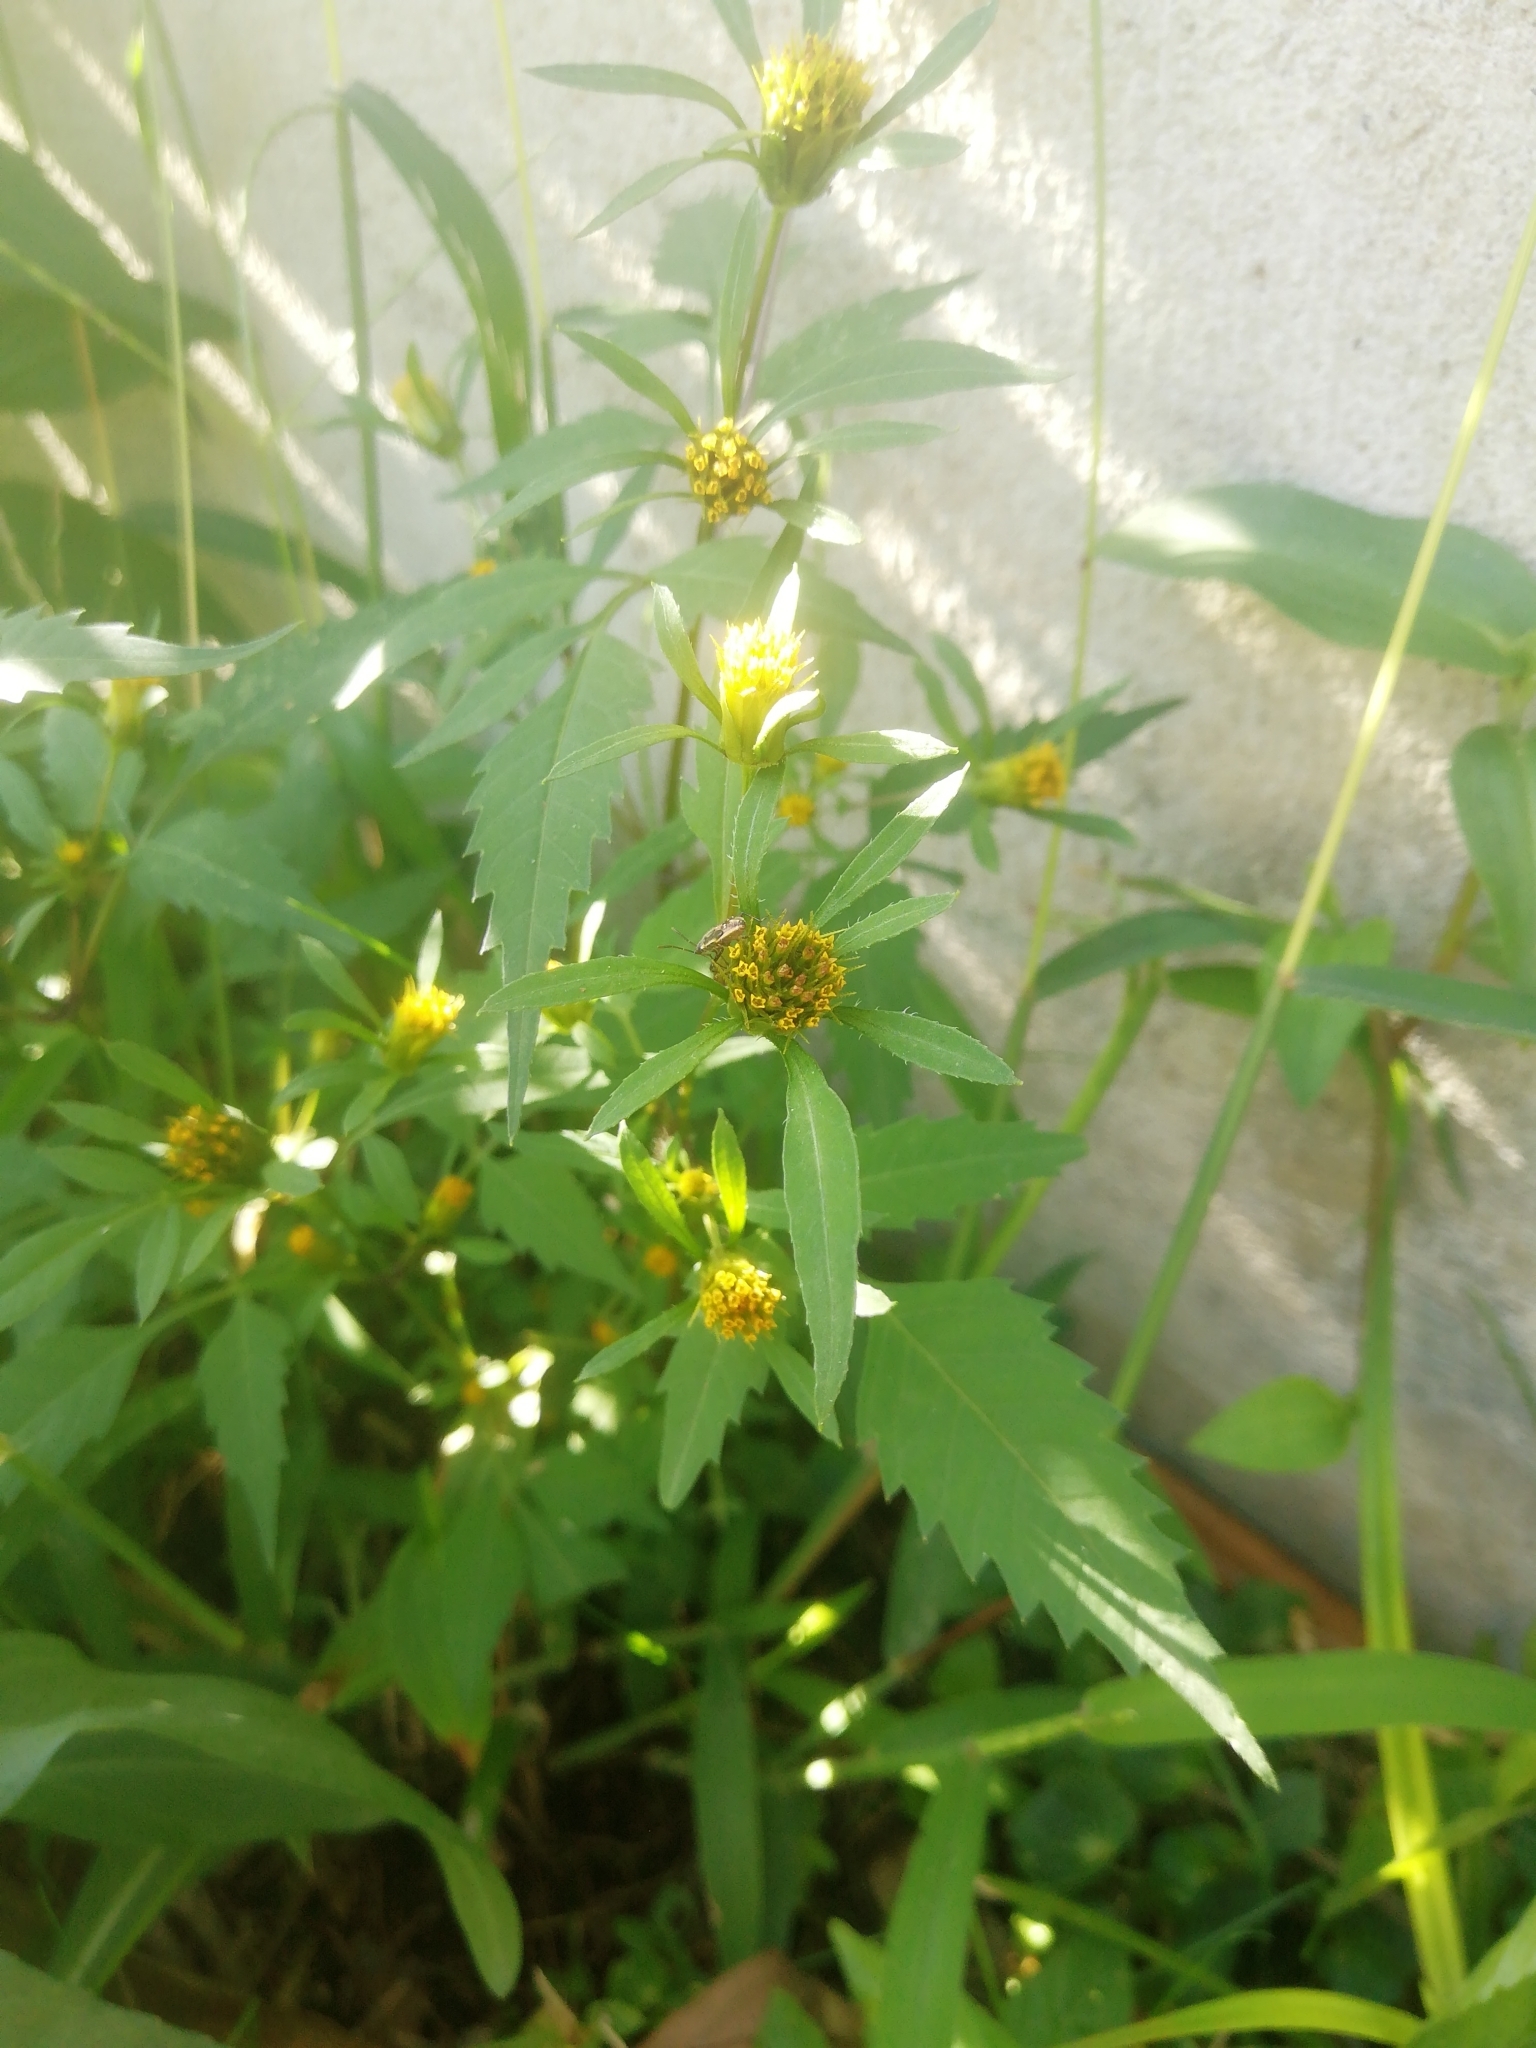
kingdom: Plantae
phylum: Tracheophyta
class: Magnoliopsida
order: Asterales
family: Asteraceae
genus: Bidens
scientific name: Bidens frondosa
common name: Beggarticks
